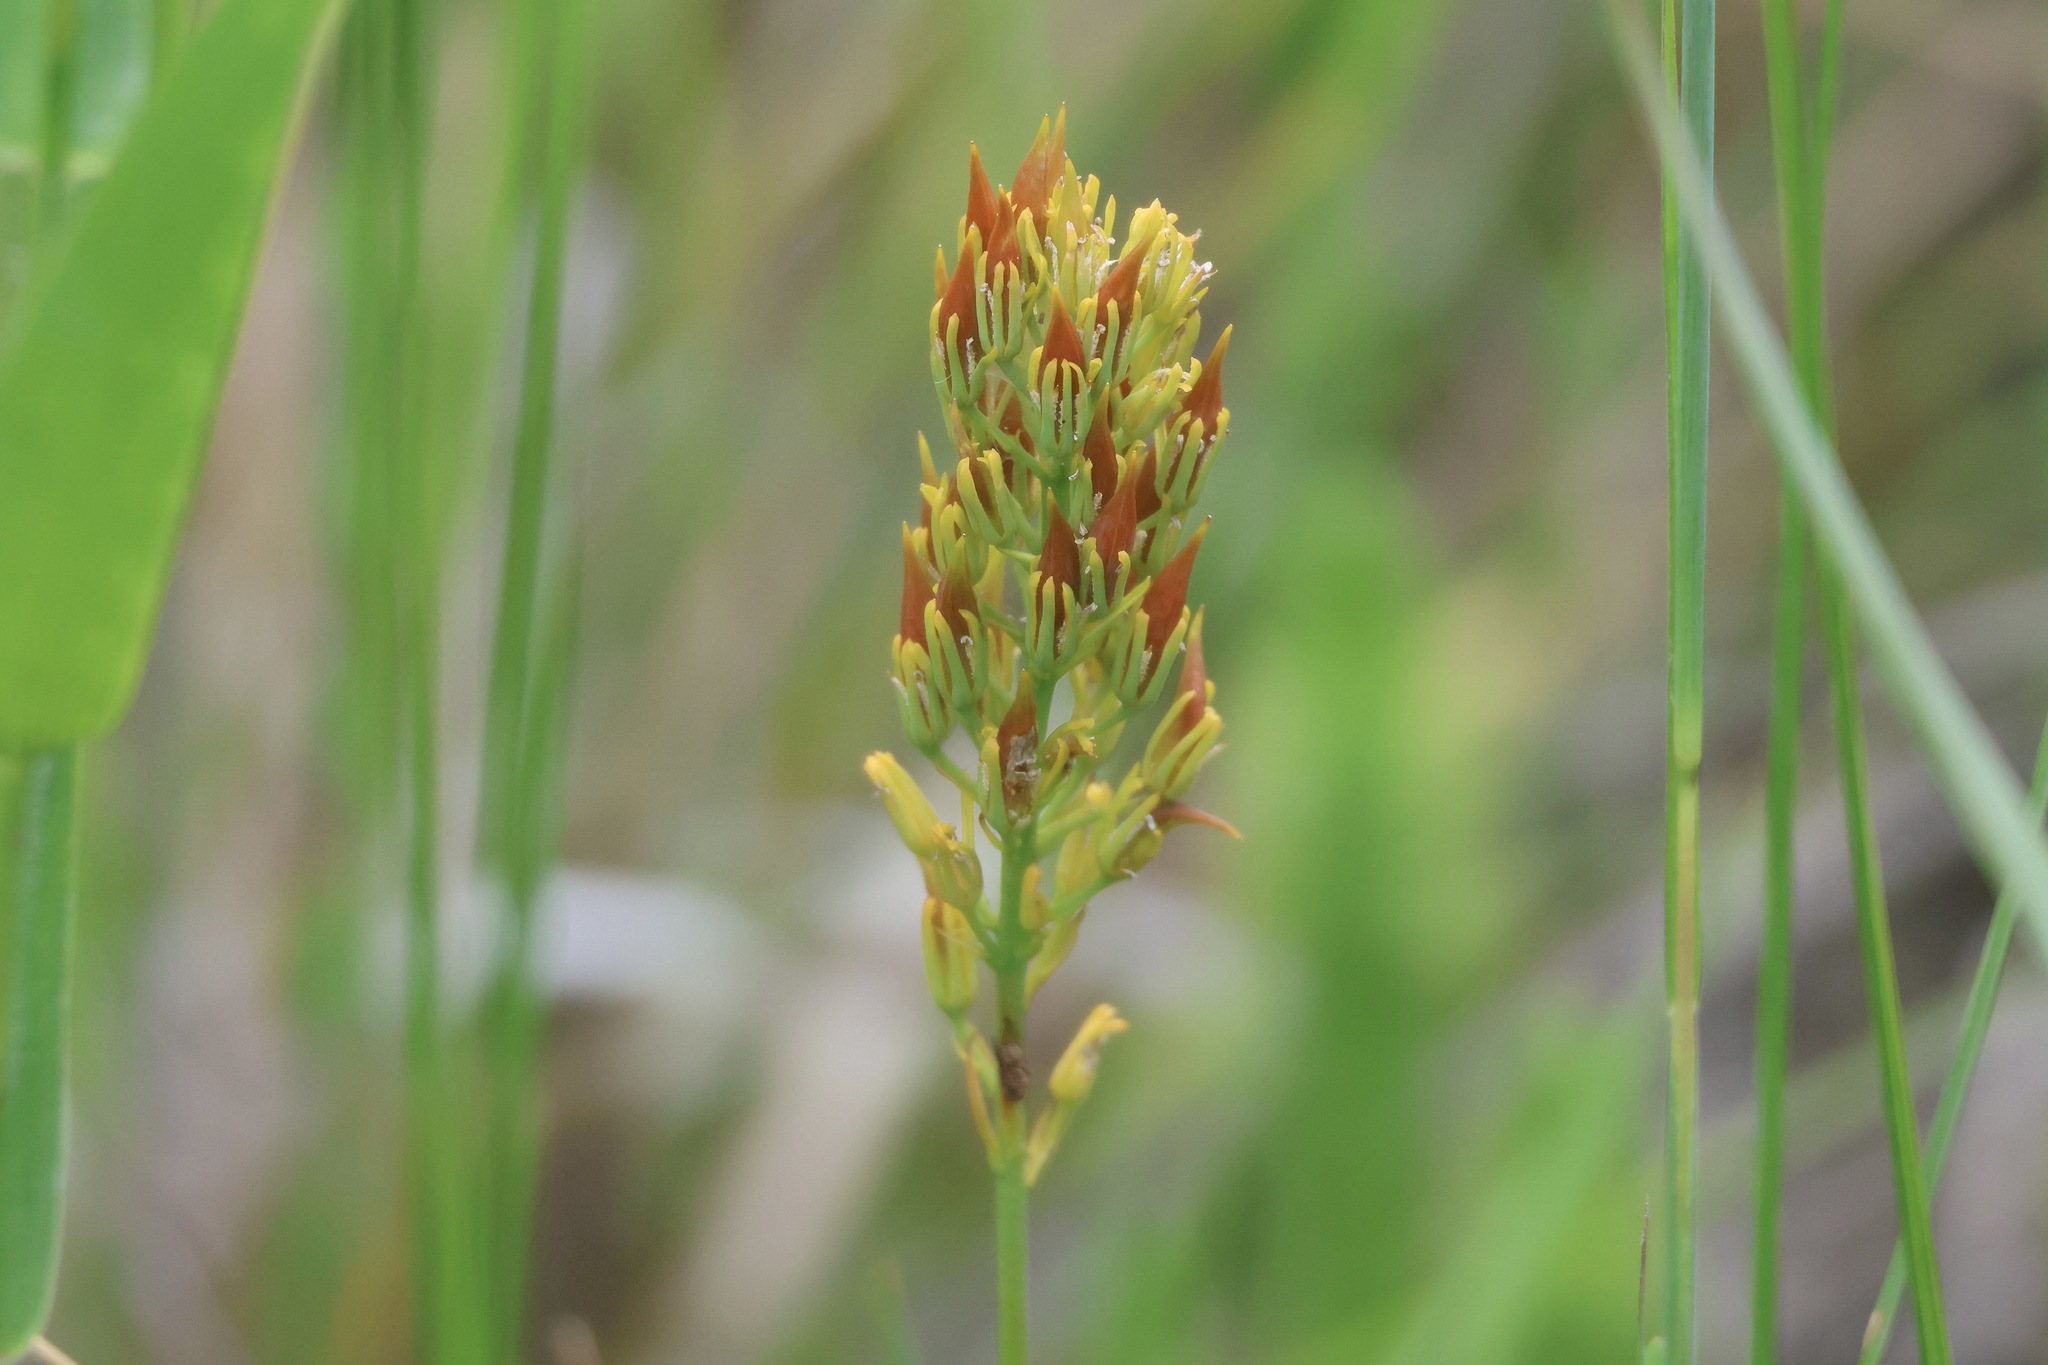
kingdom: Plantae
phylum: Tracheophyta
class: Liliopsida
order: Dioscoreales
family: Nartheciaceae
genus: Narthecium
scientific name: Narthecium americanum
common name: Bog-asphodel
